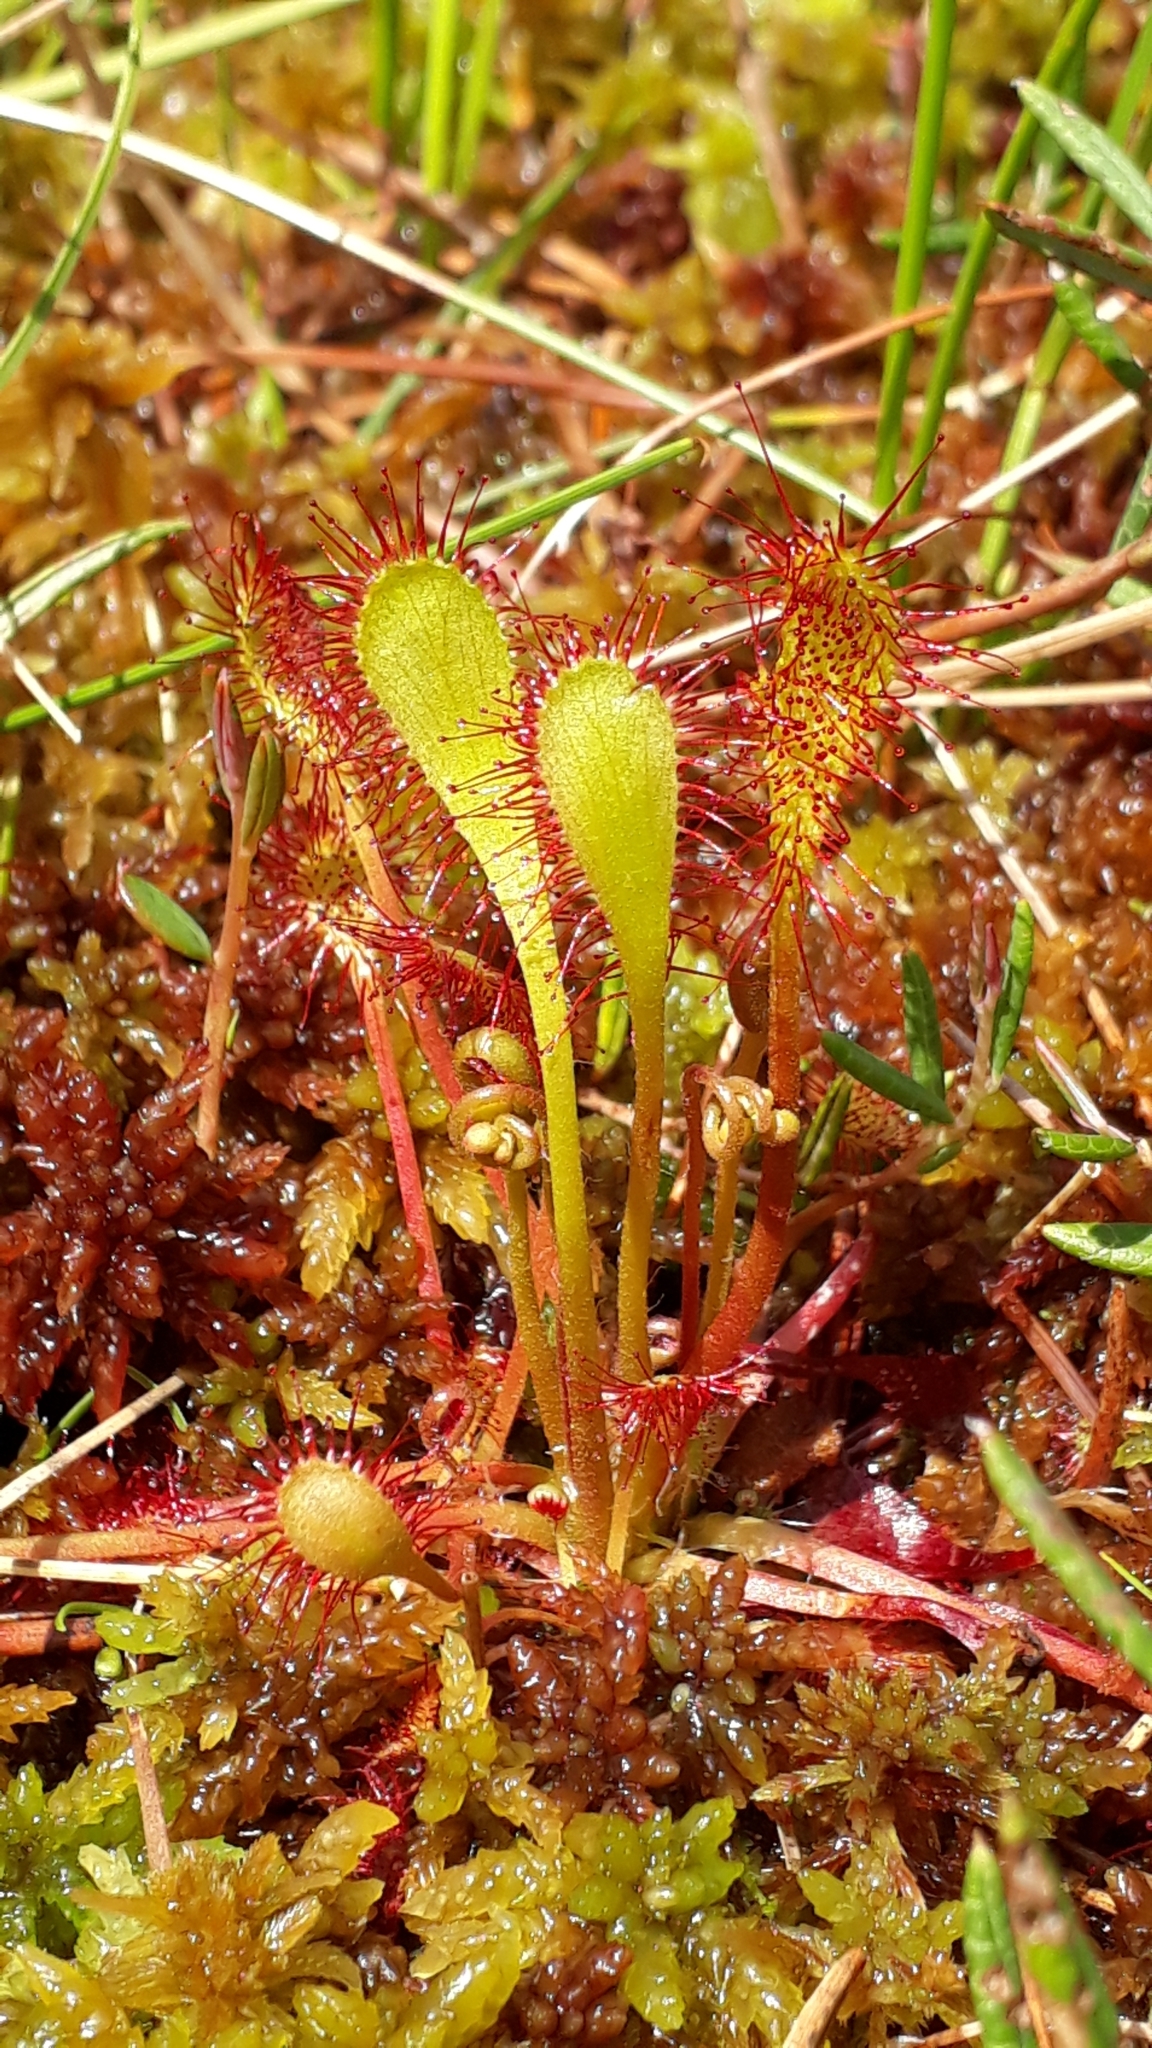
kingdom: Plantae
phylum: Tracheophyta
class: Magnoliopsida
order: Caryophyllales
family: Droseraceae
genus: Drosera
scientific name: Drosera obovata
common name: Ivan's paddle
